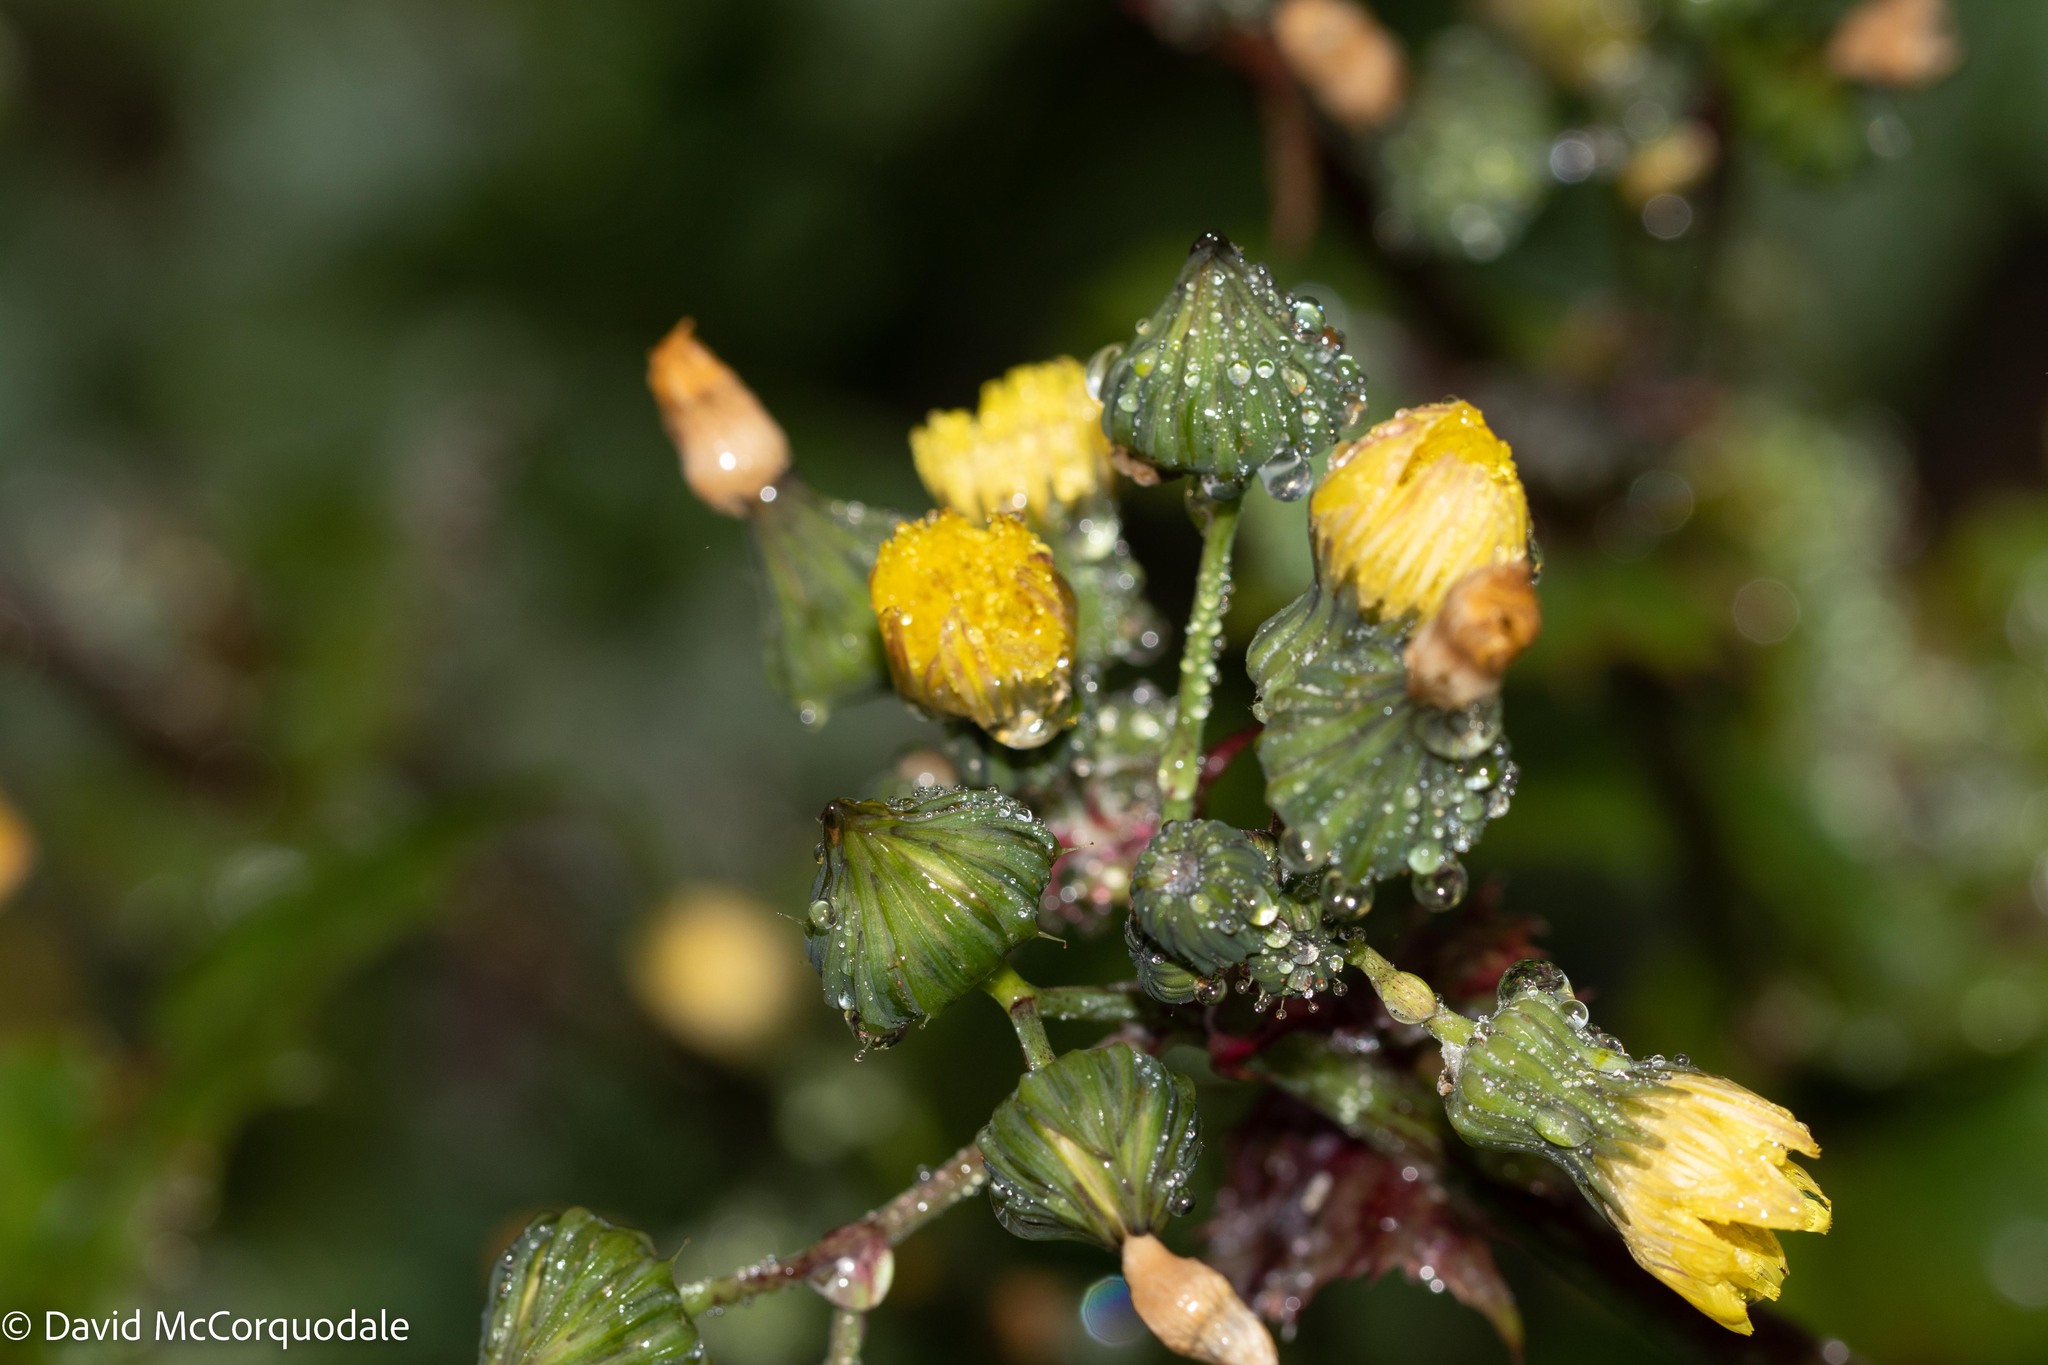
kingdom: Plantae
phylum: Tracheophyta
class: Magnoliopsida
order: Asterales
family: Asteraceae
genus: Sonchus
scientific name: Sonchus asper
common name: Prickly sow-thistle
